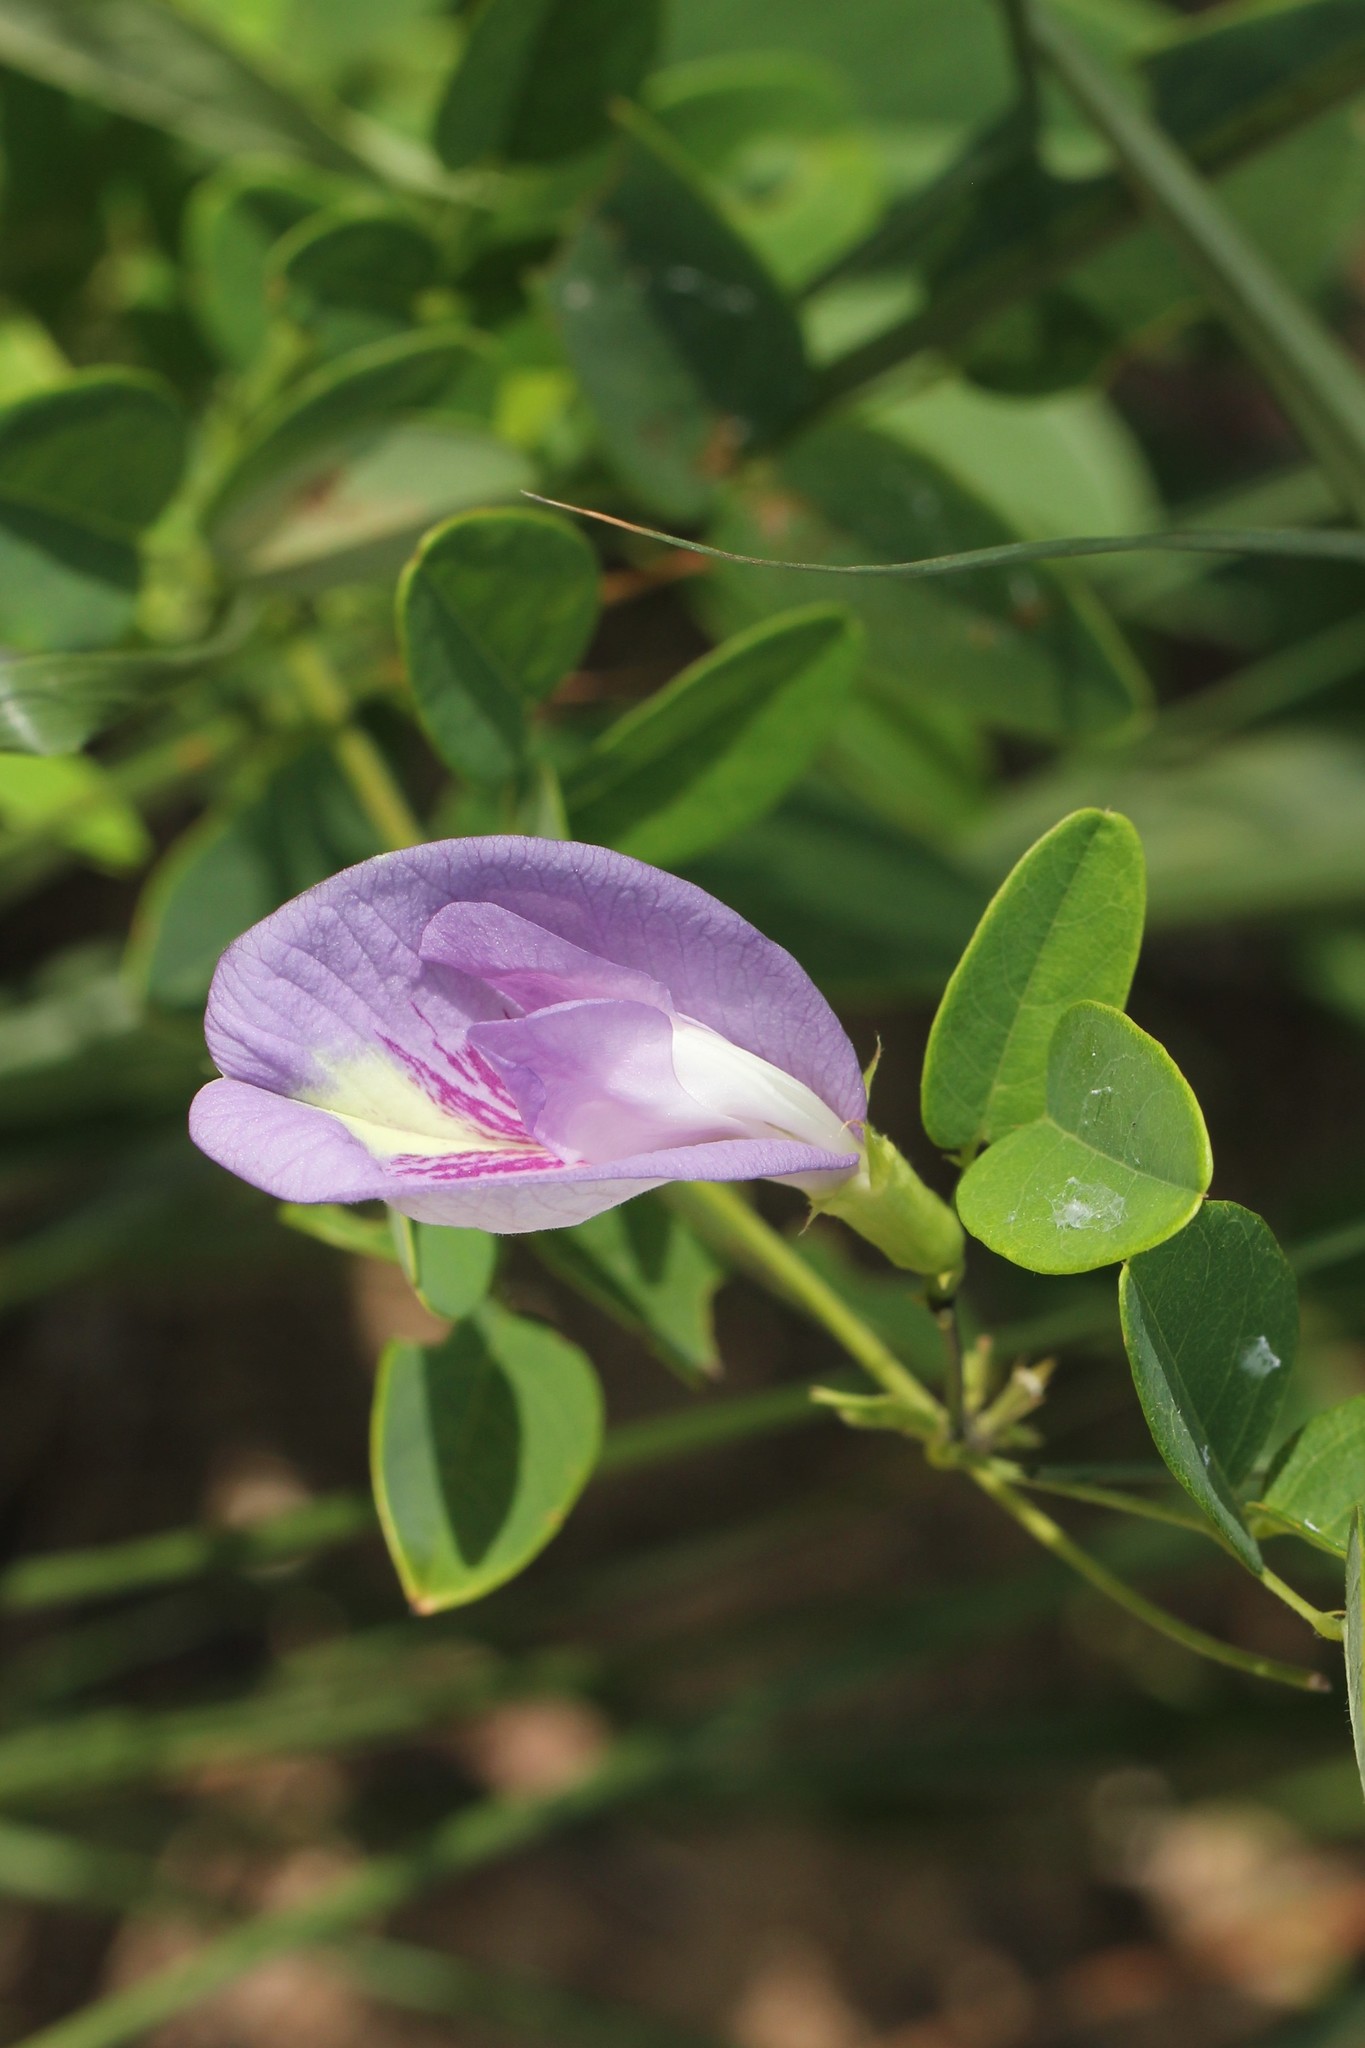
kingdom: Plantae
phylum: Tracheophyta
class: Magnoliopsida
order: Fabales
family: Fabaceae
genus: Clitoria
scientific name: Clitoria mariana
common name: Butterfly-pea
